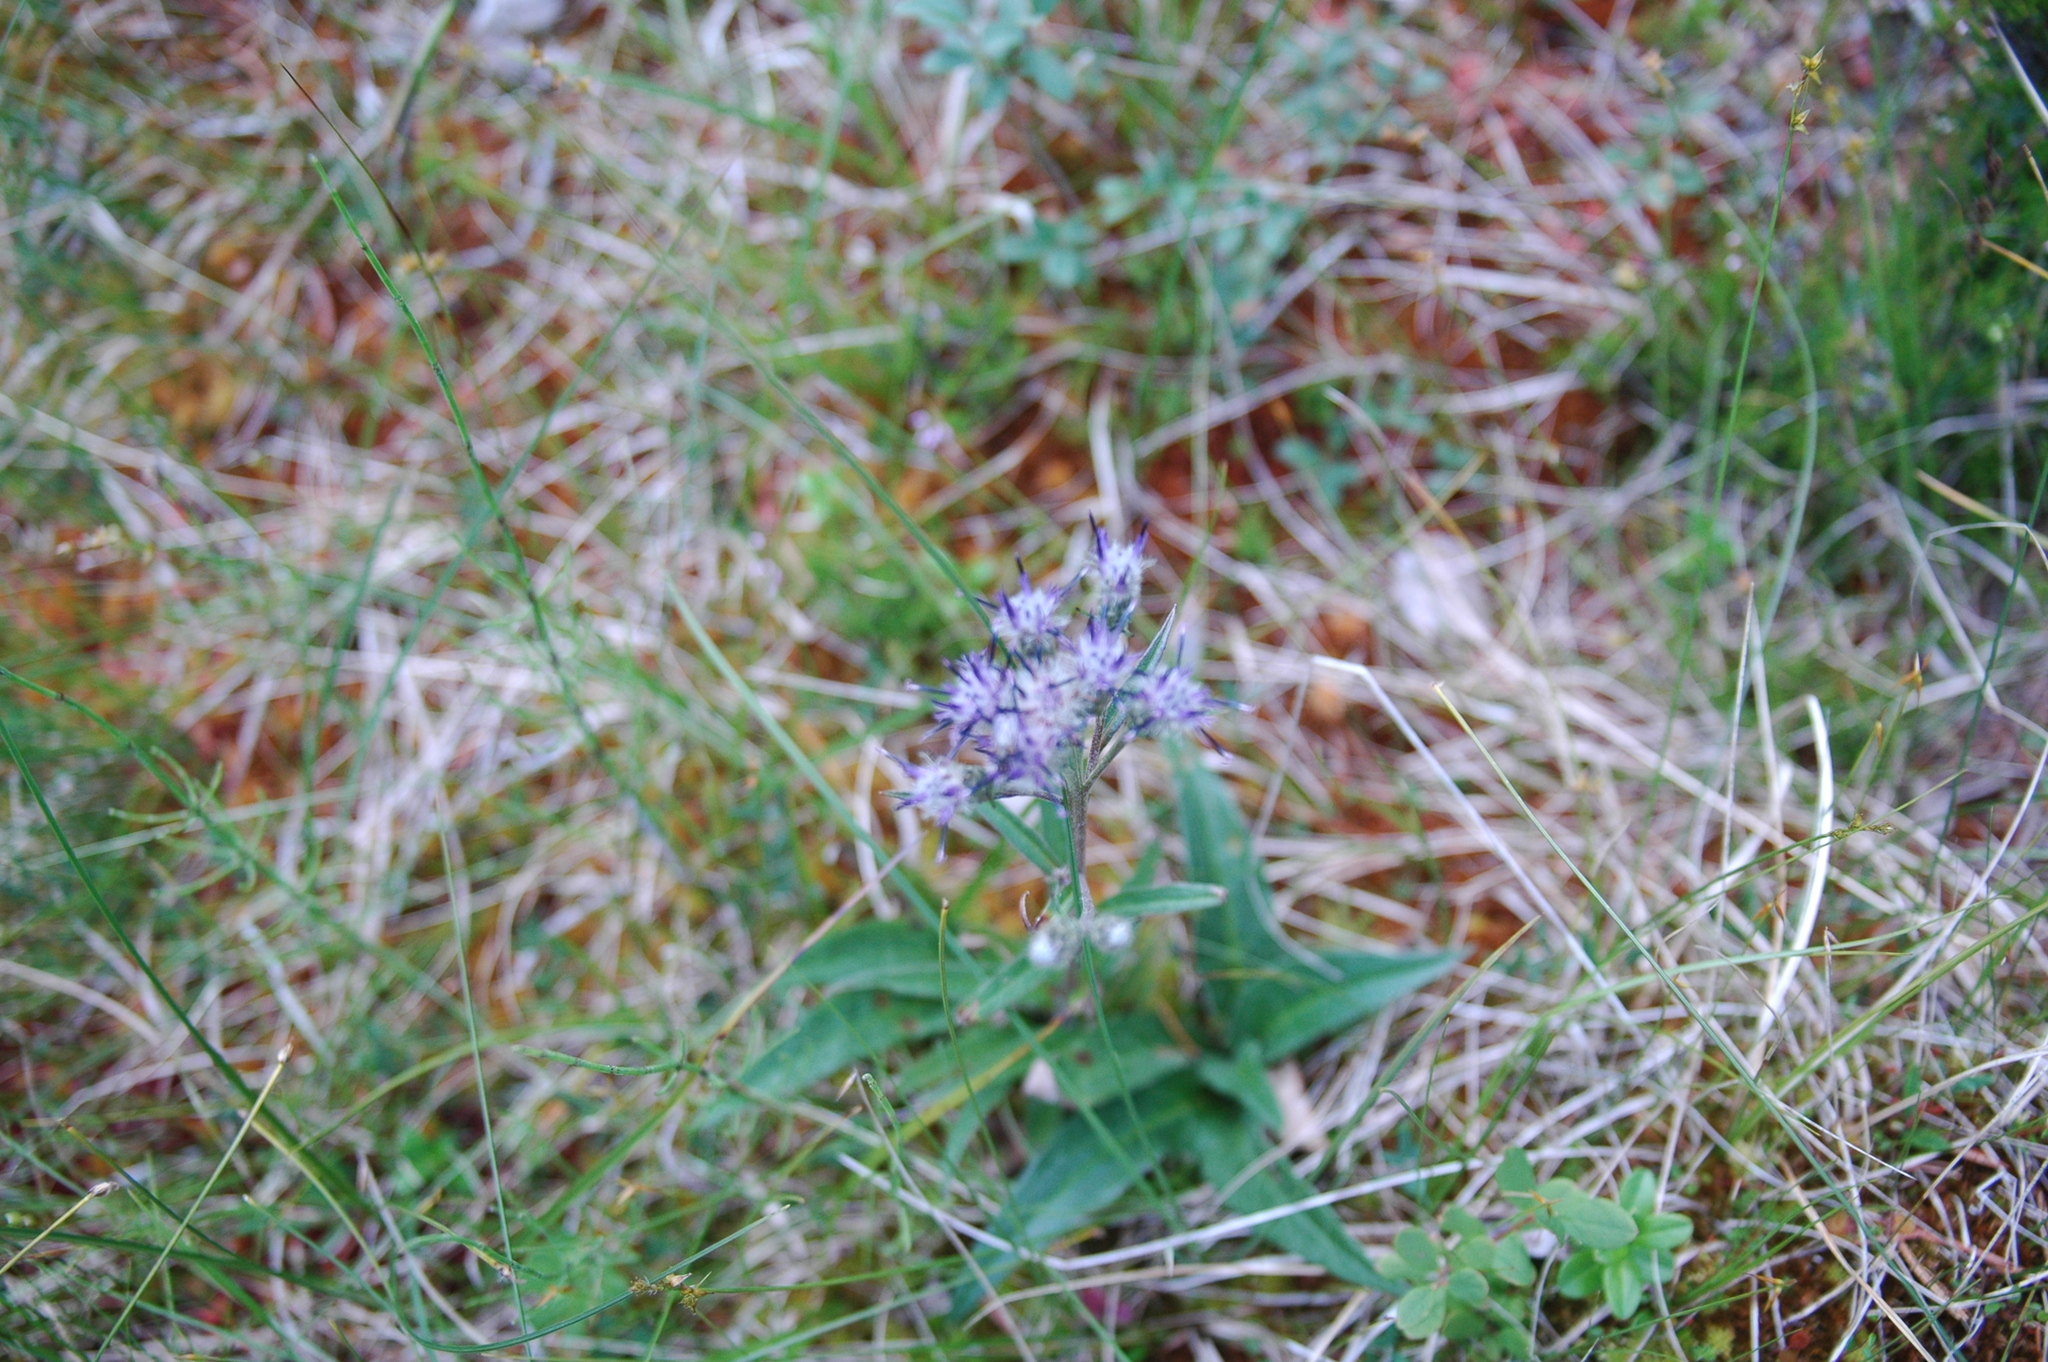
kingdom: Plantae
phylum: Tracheophyta
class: Magnoliopsida
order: Asterales
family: Asteraceae
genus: Saussurea
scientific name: Saussurea alpina
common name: Alpine saw-wort
